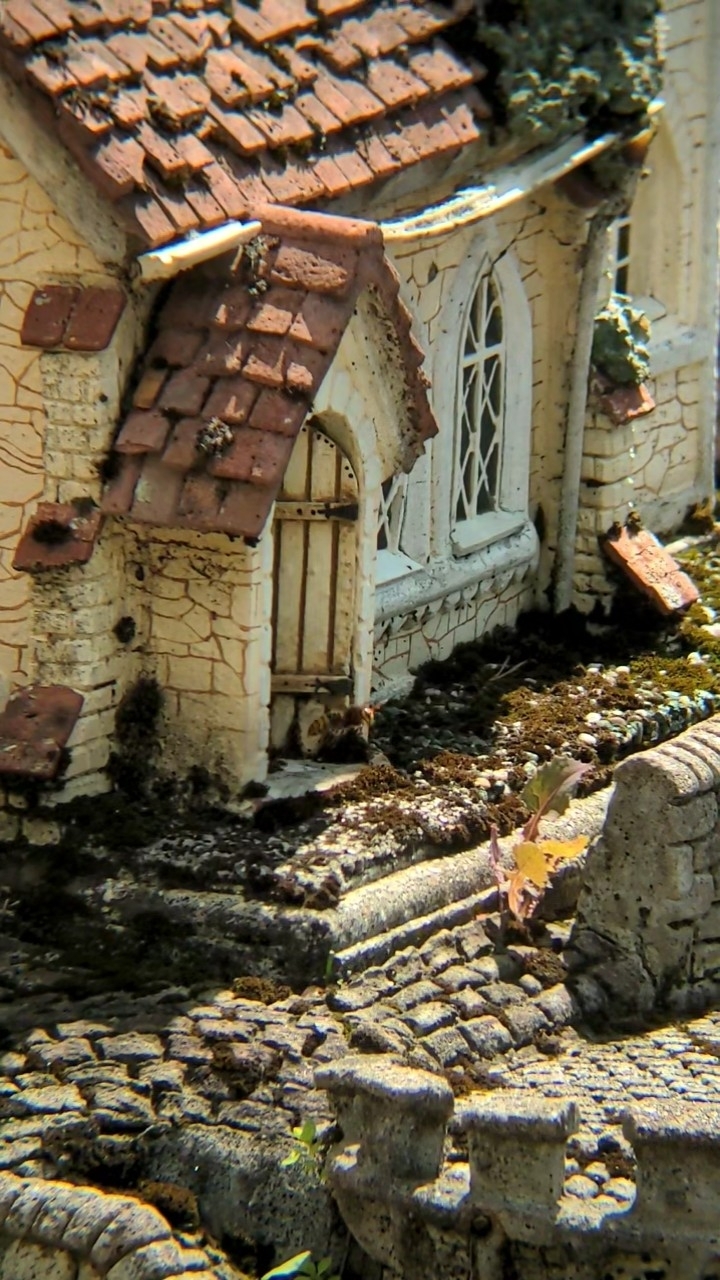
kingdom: Animalia
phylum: Arthropoda
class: Insecta
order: Hymenoptera
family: Vespidae
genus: Vespa
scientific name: Vespa crabro
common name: Hornet
